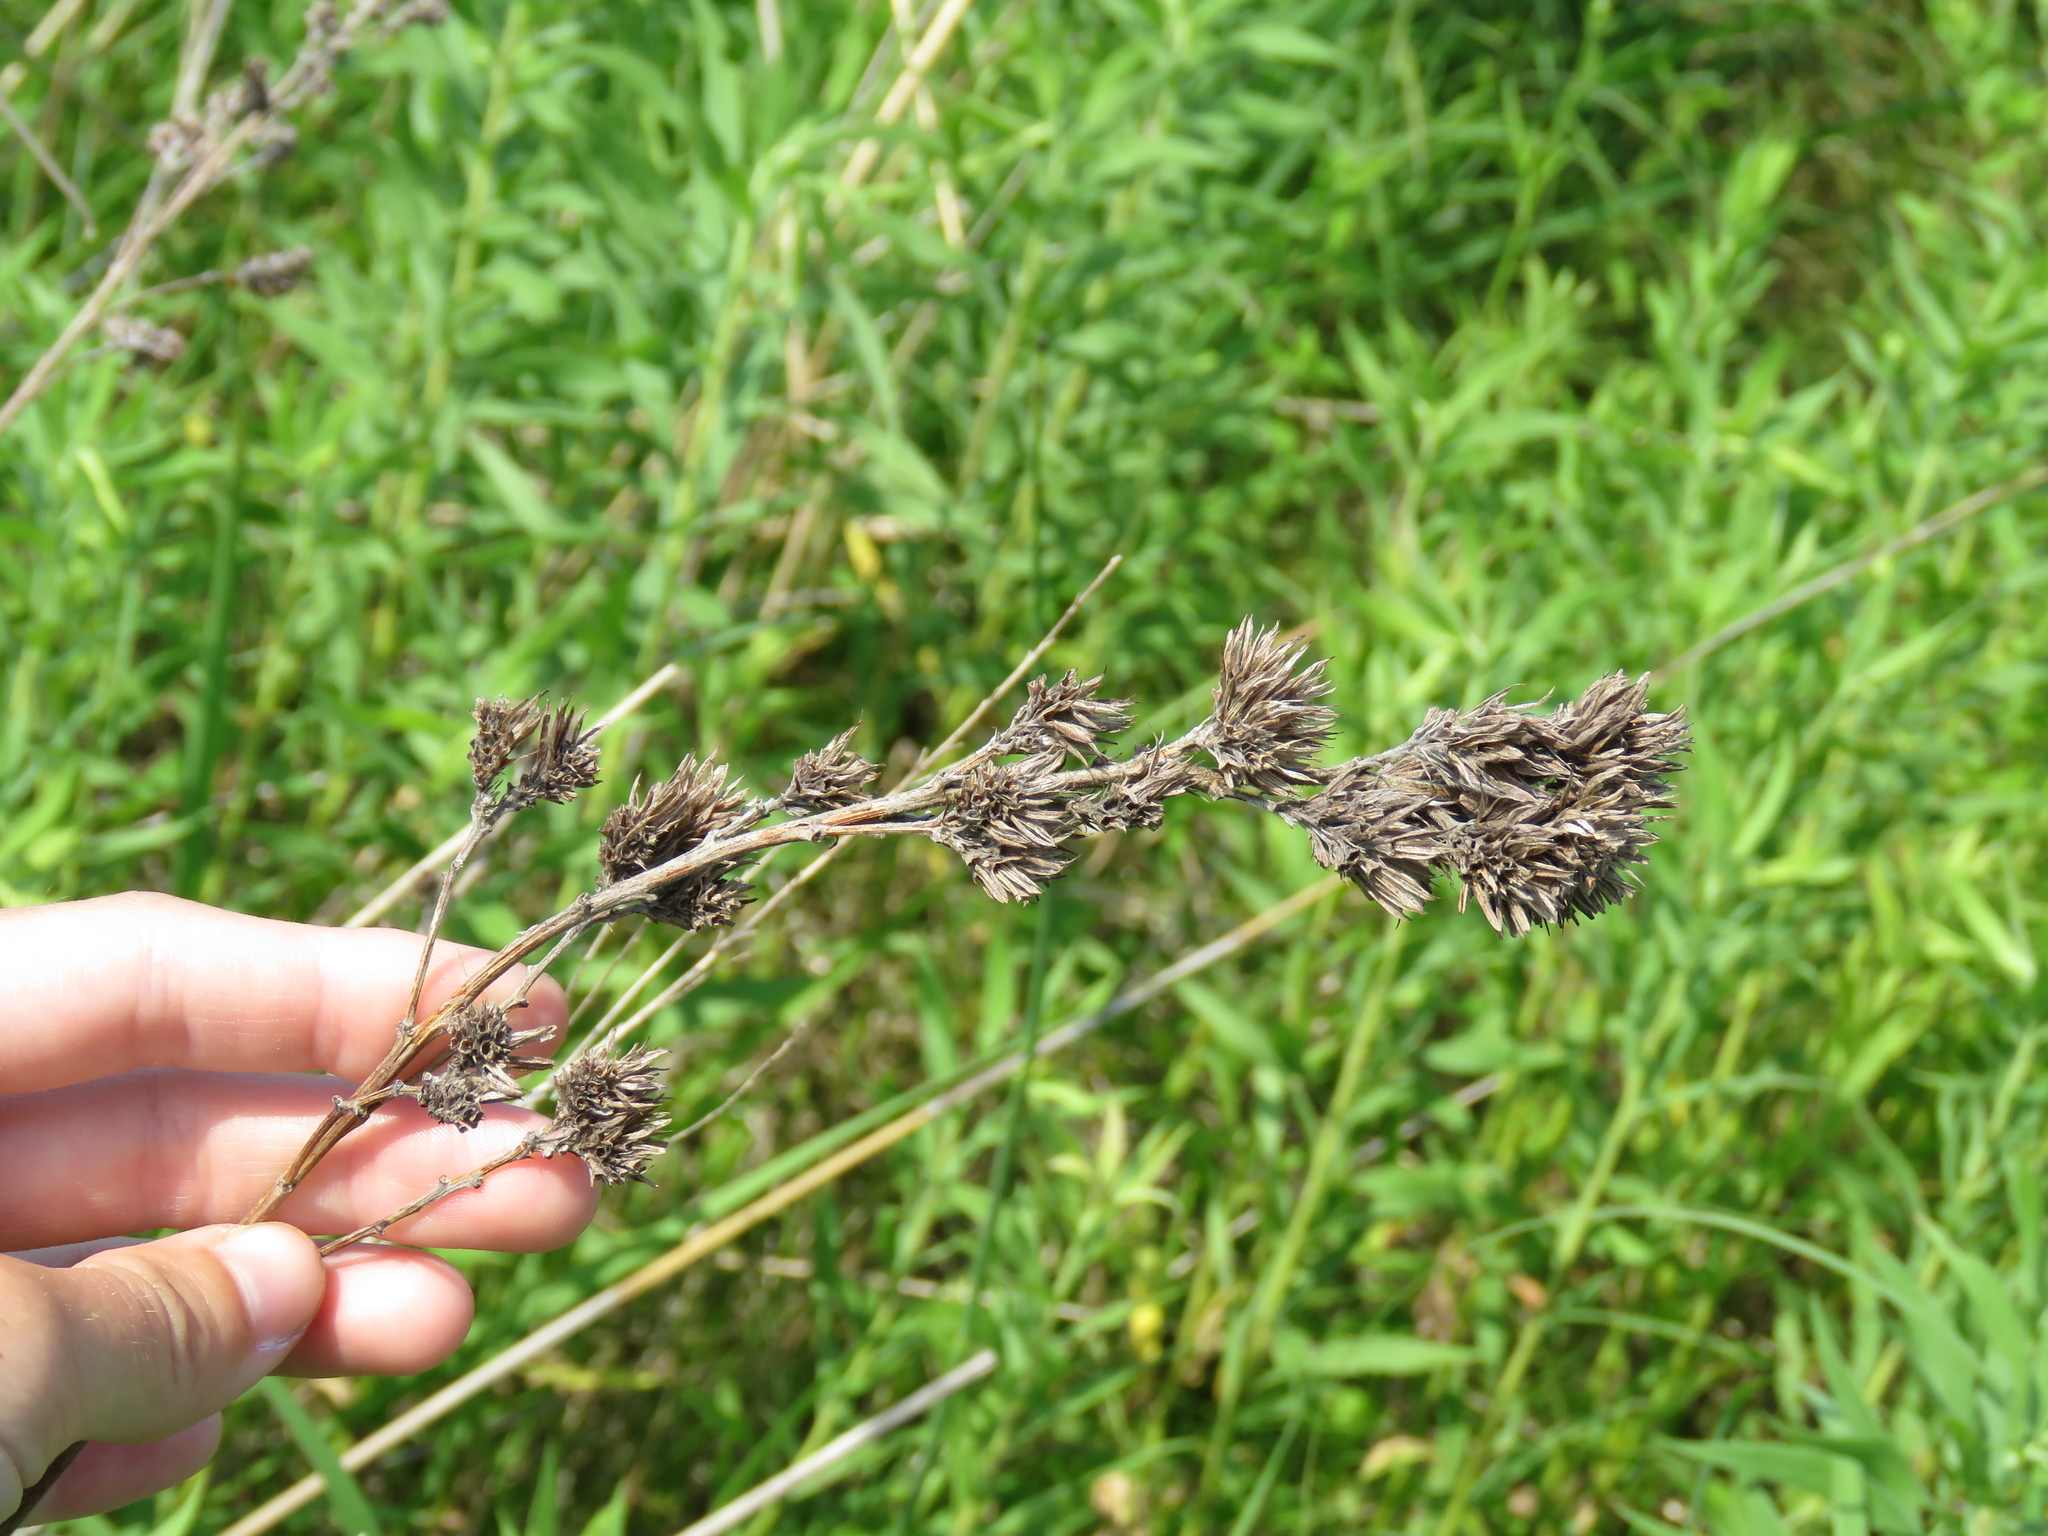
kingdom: Plantae
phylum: Tracheophyta
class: Magnoliopsida
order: Fabales
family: Fabaceae
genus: Lespedeza
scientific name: Lespedeza capitata
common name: Dusty clover
